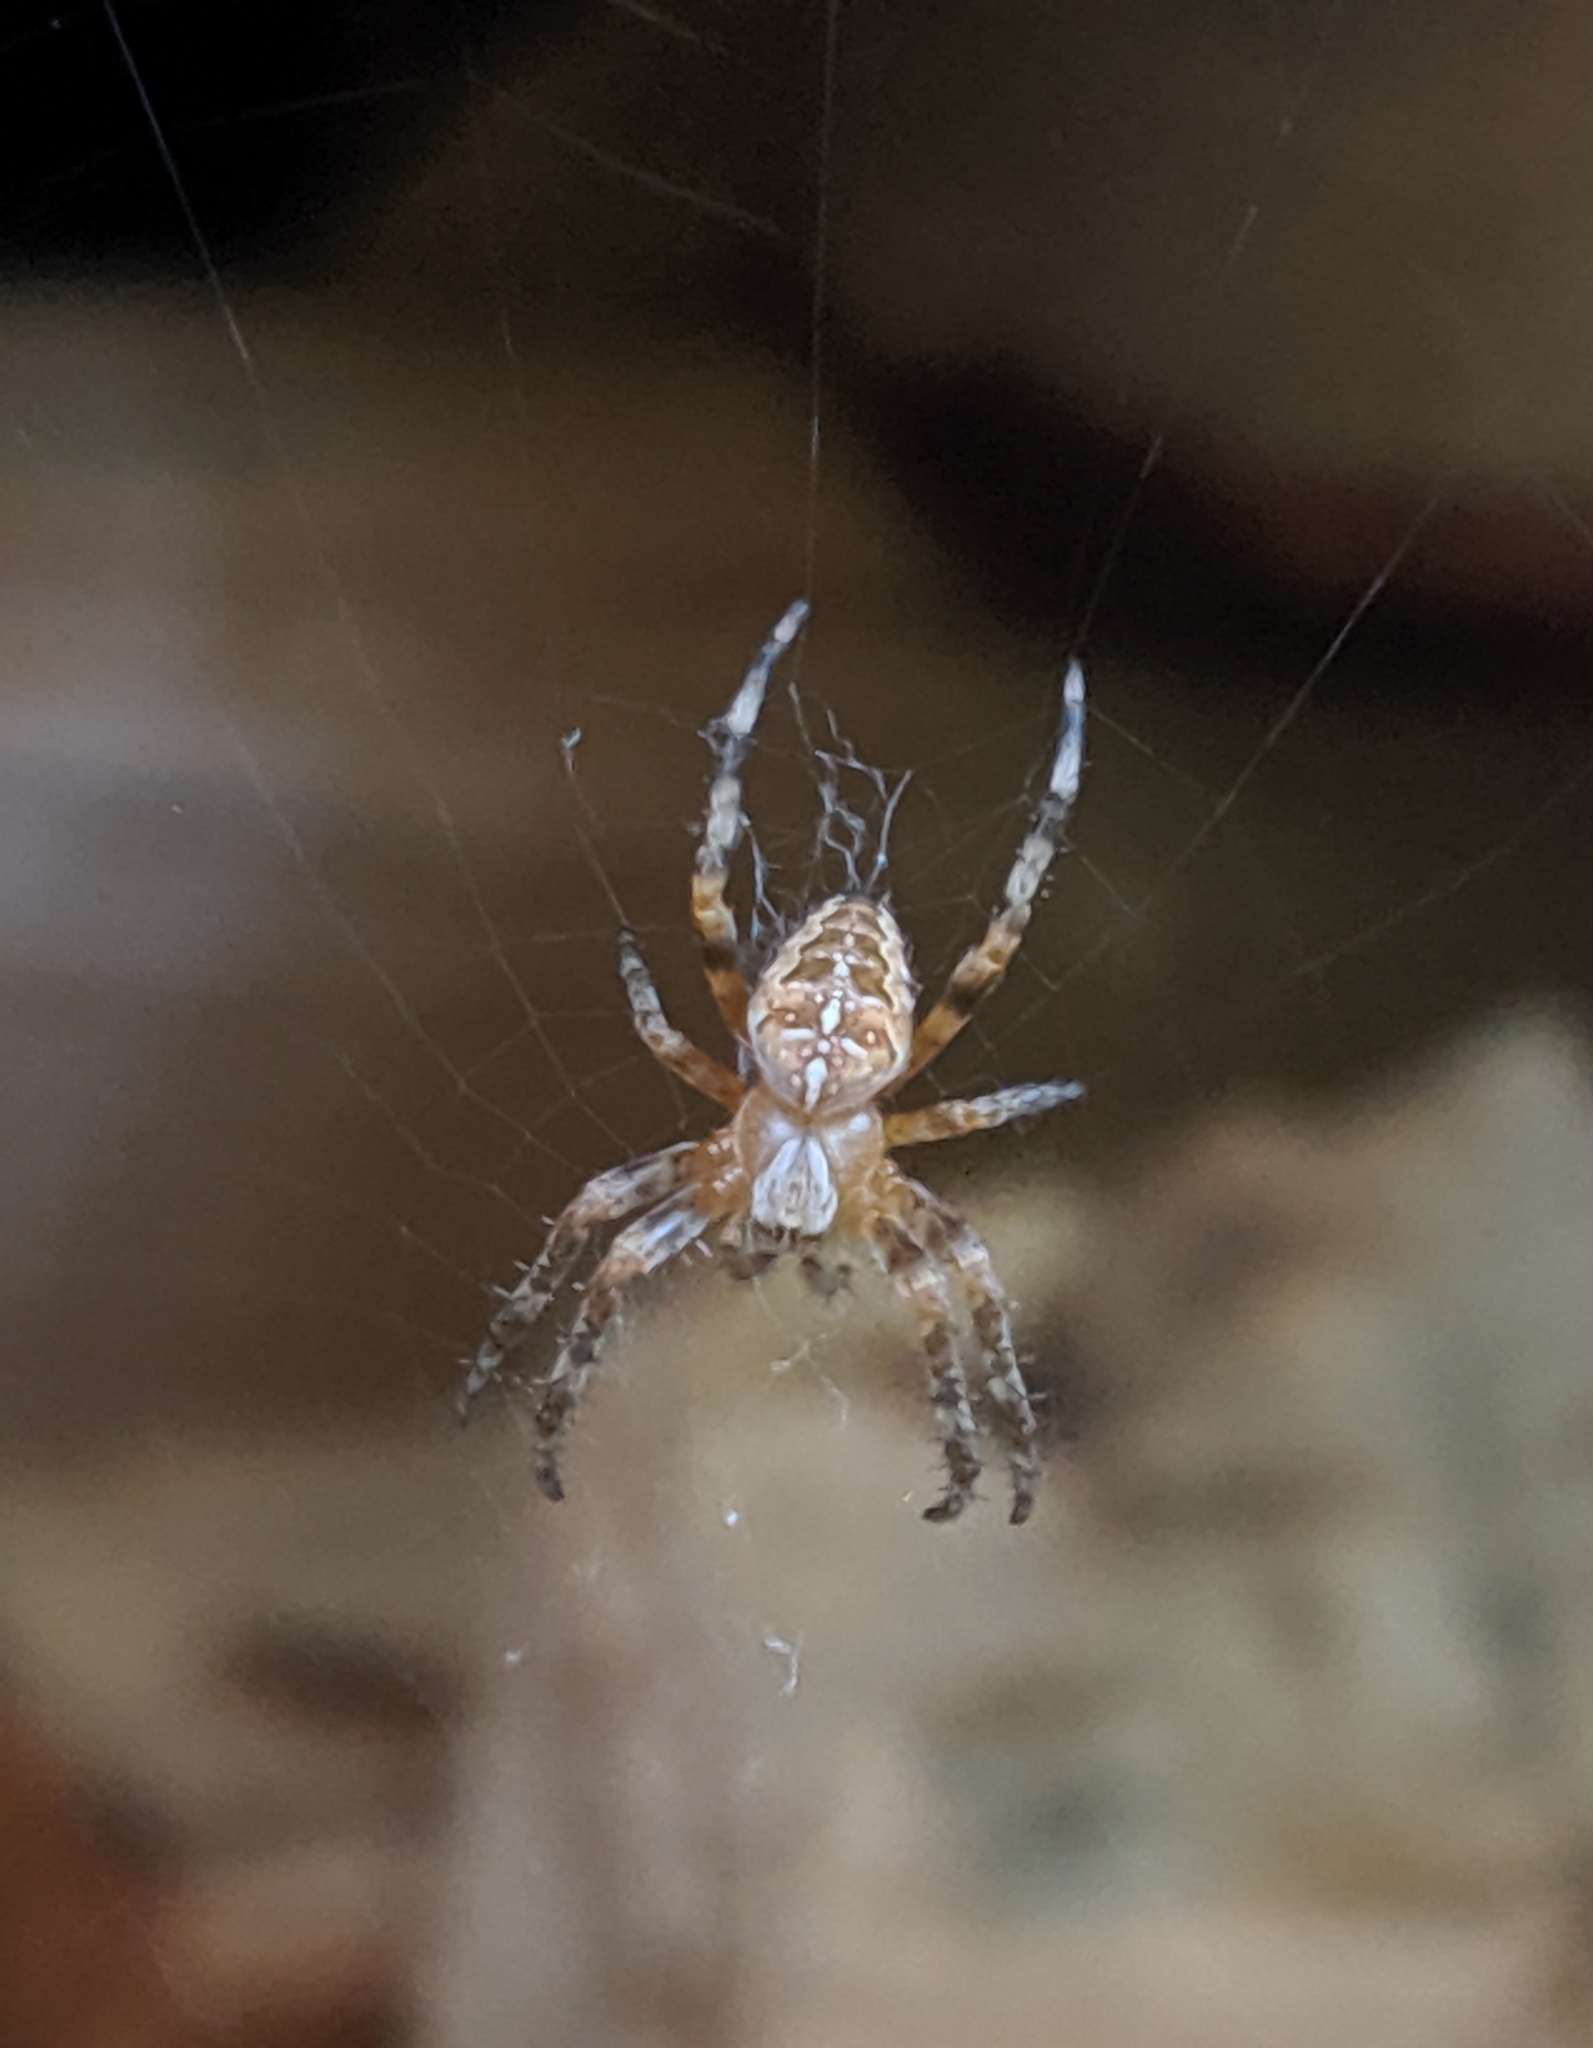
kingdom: Animalia
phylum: Arthropoda
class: Arachnida
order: Araneae
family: Araneidae
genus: Araneus
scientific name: Araneus diadematus
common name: Cross orbweaver
